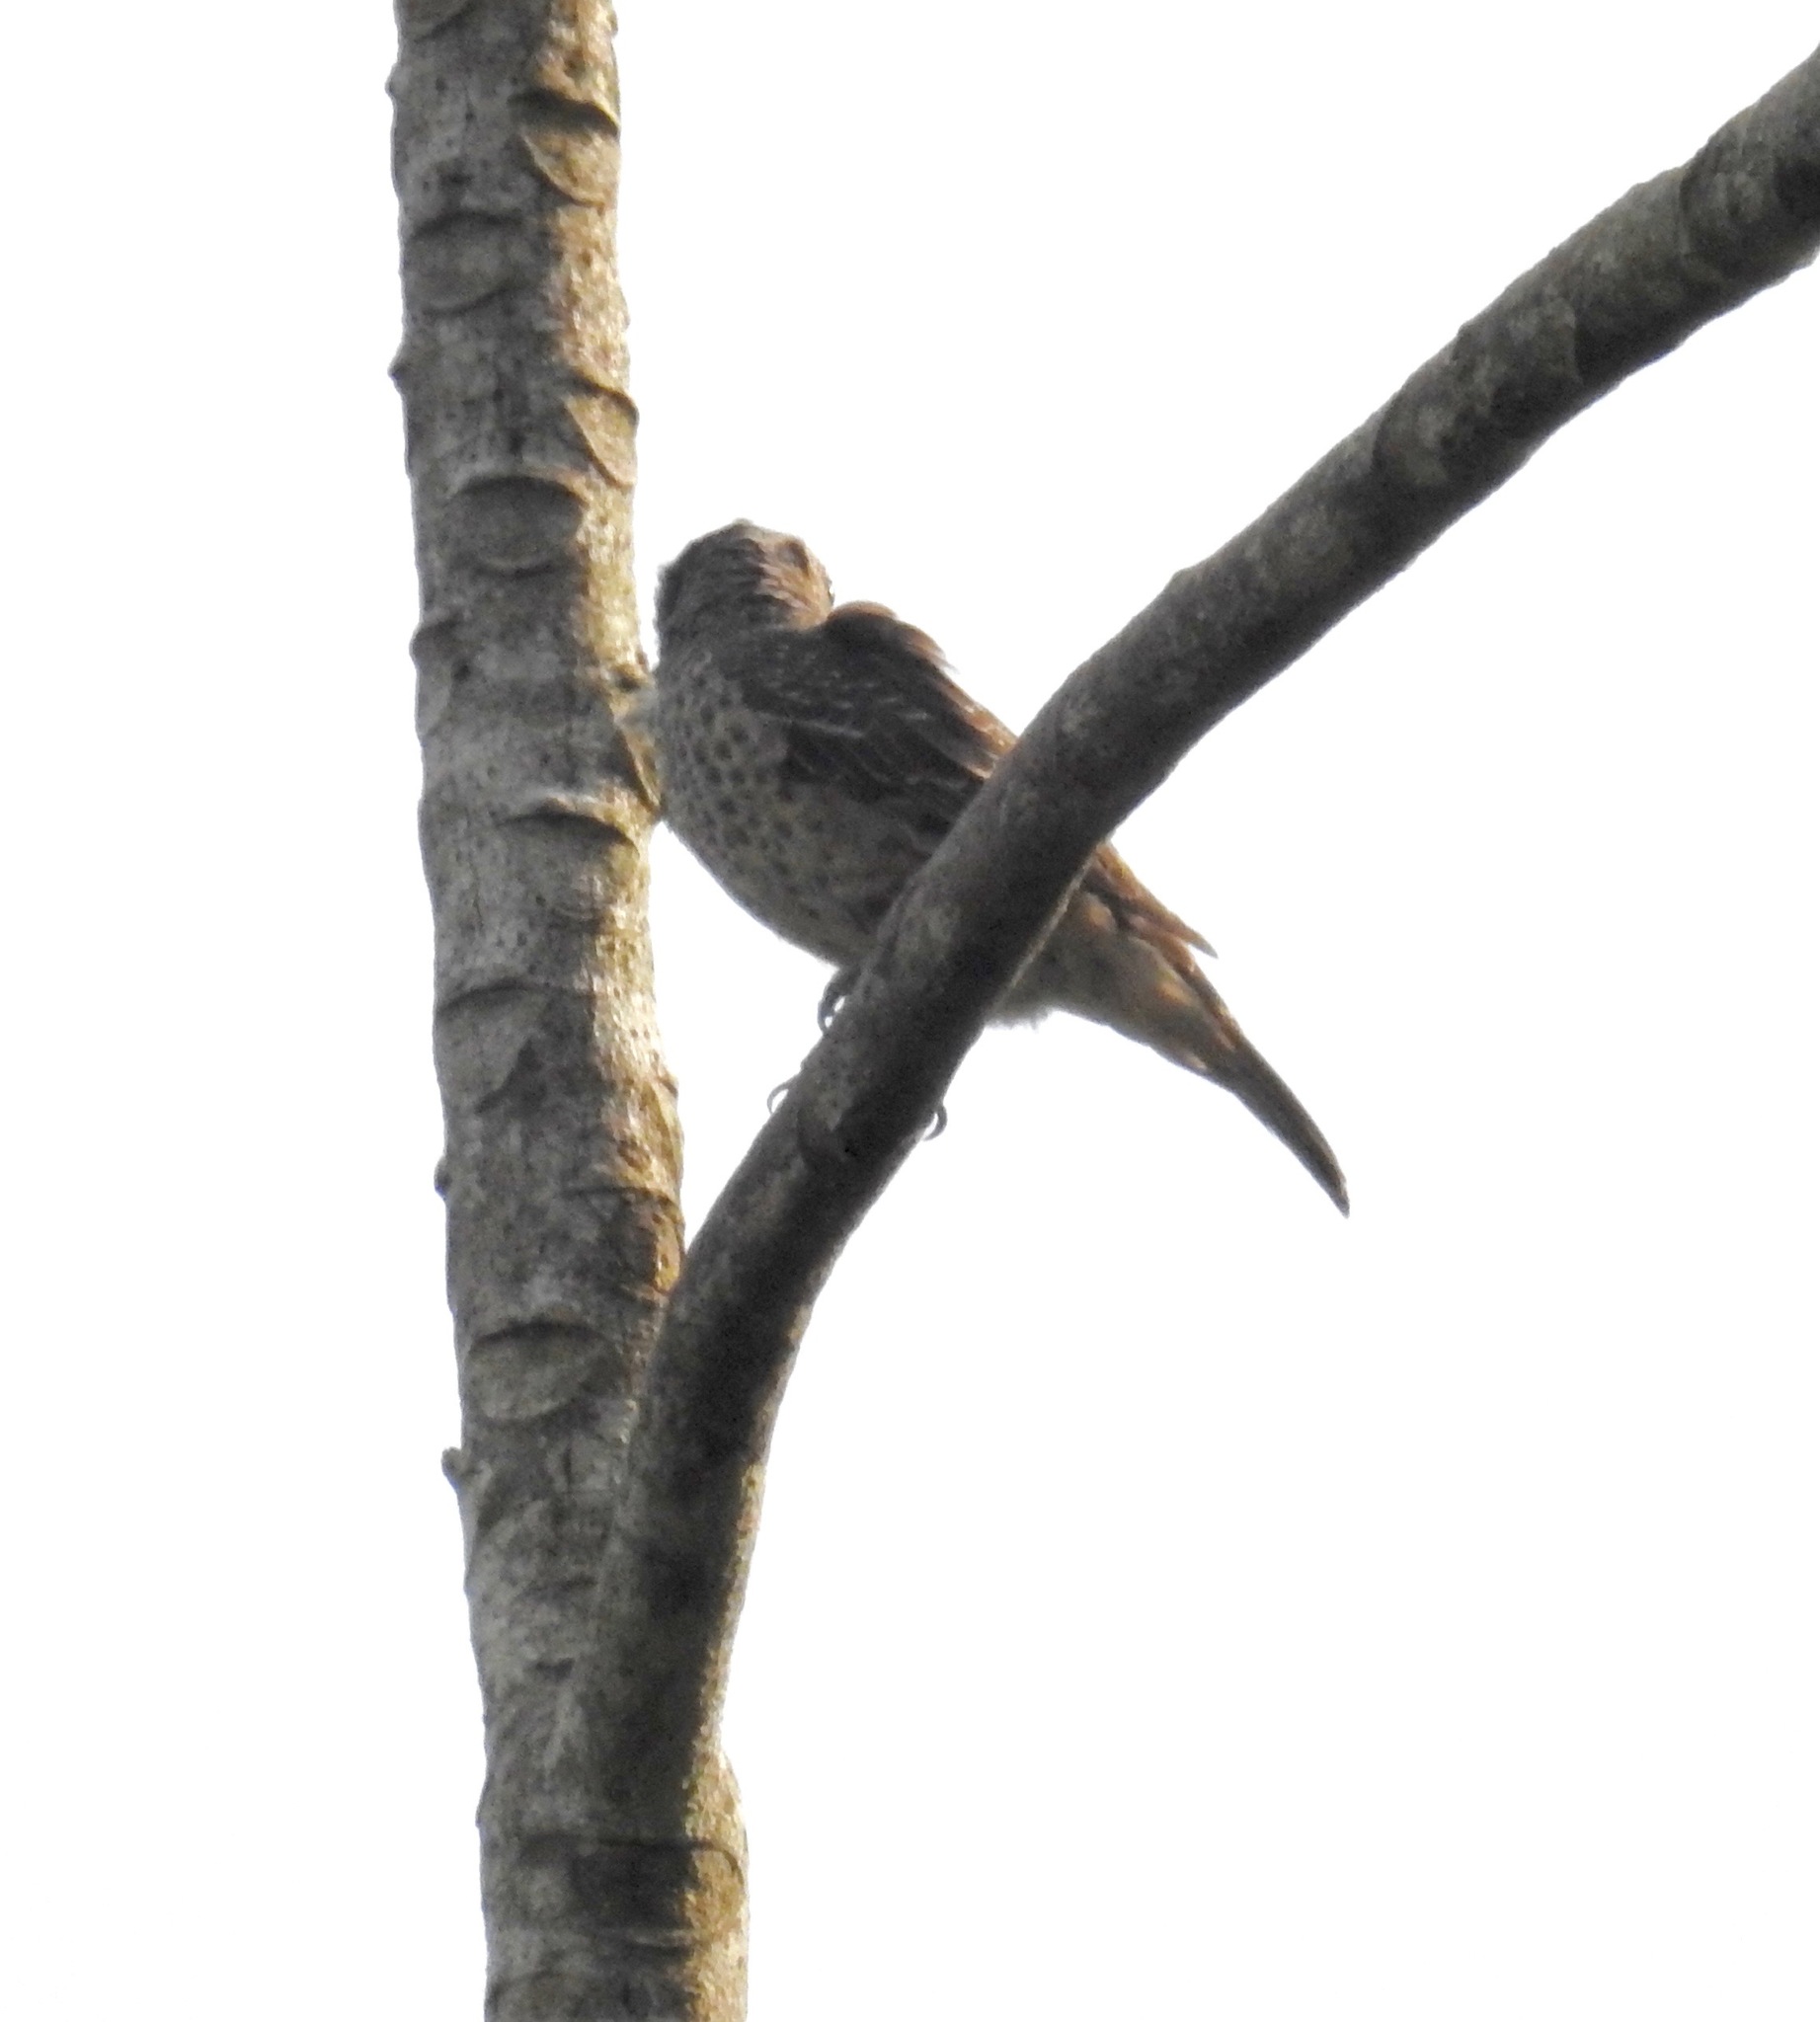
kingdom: Animalia
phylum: Chordata
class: Aves
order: Passeriformes
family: Cotingidae
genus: Cotinga
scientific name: Cotinga maculata
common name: Banded cotinga
